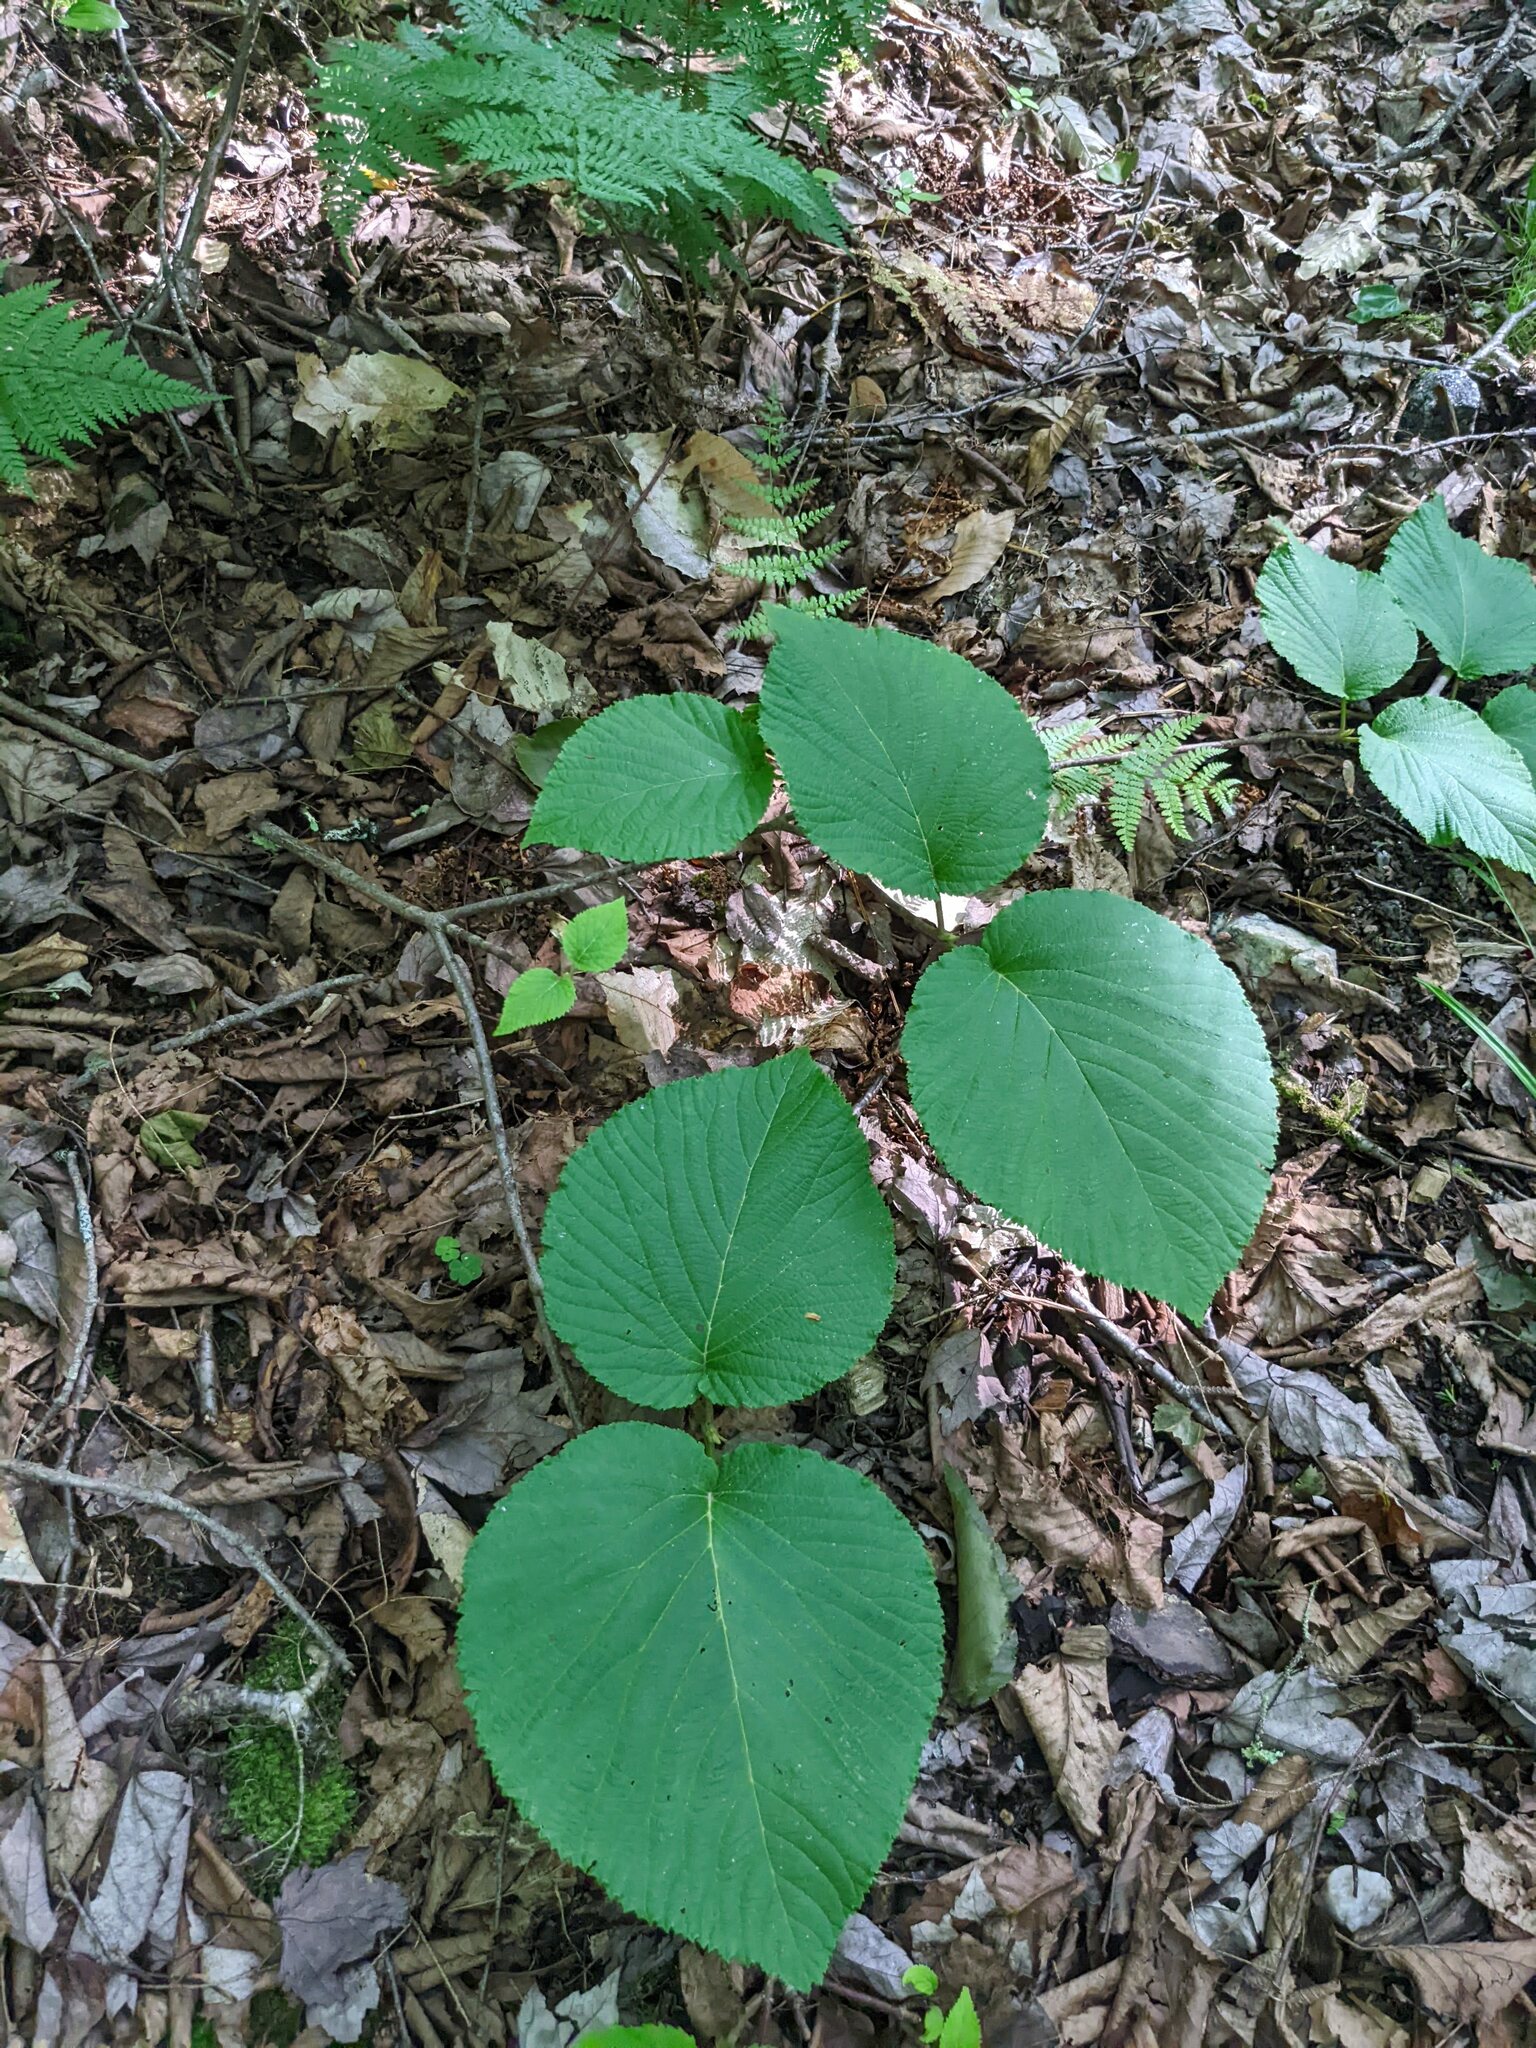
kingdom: Plantae
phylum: Tracheophyta
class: Magnoliopsida
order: Dipsacales
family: Viburnaceae
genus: Viburnum
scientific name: Viburnum lantanoides
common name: Hobblebush
